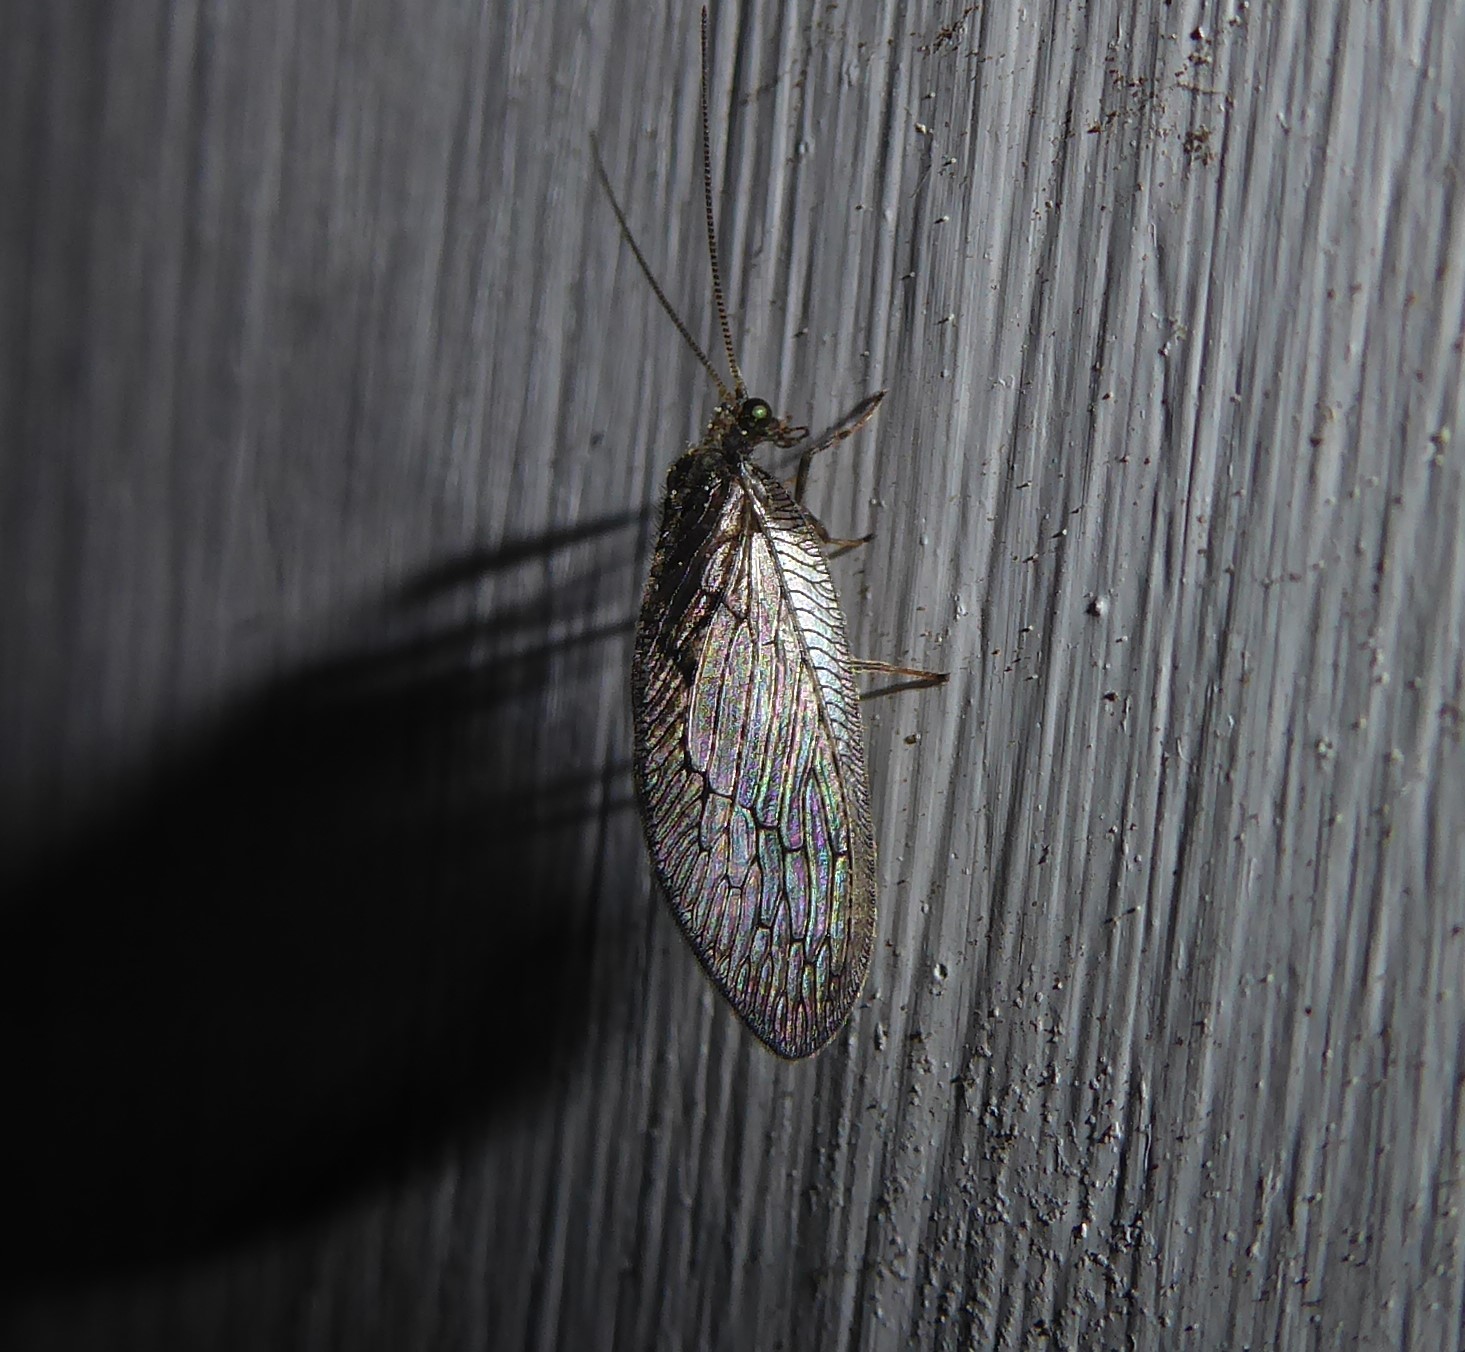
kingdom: Animalia
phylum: Arthropoda
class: Insecta
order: Neuroptera
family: Hemerobiidae
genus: Wesmaelius
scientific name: Wesmaelius subnebulosus
